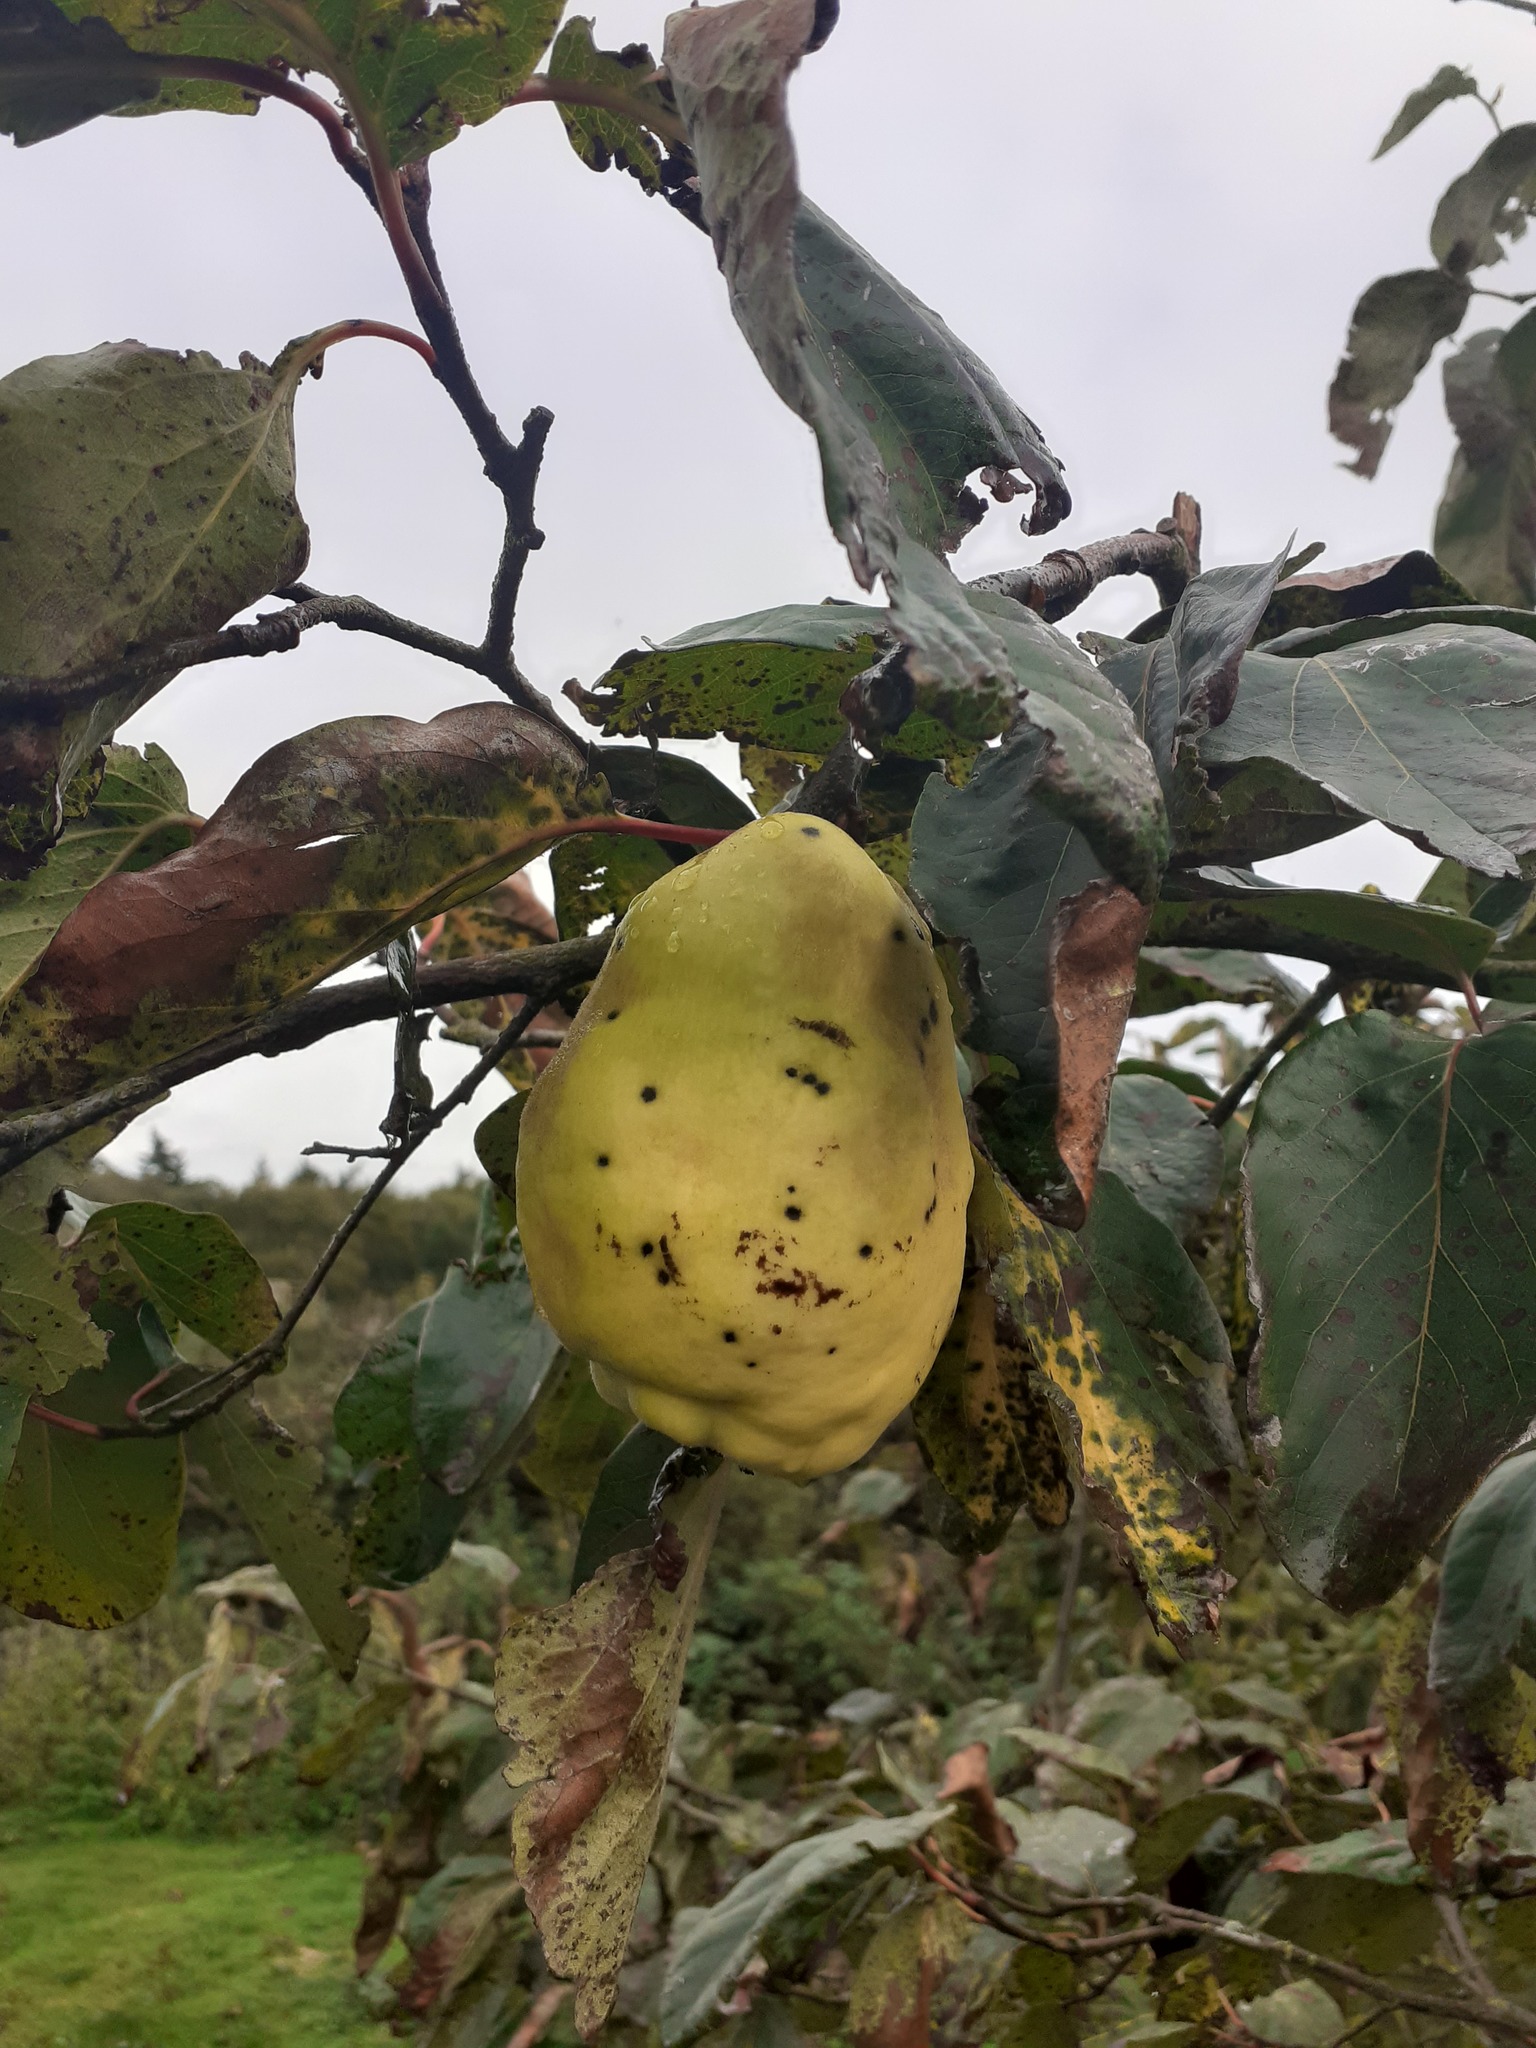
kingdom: Plantae
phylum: Tracheophyta
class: Magnoliopsida
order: Rosales
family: Rosaceae
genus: Cydonia
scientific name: Cydonia oblonga
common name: Quince
